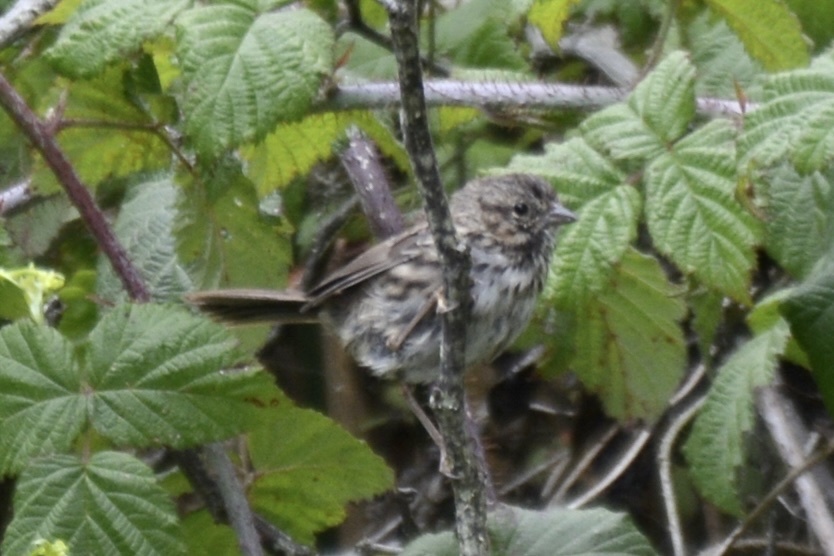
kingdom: Animalia
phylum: Chordata
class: Aves
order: Passeriformes
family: Passerellidae
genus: Melospiza
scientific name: Melospiza melodia
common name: Song sparrow
